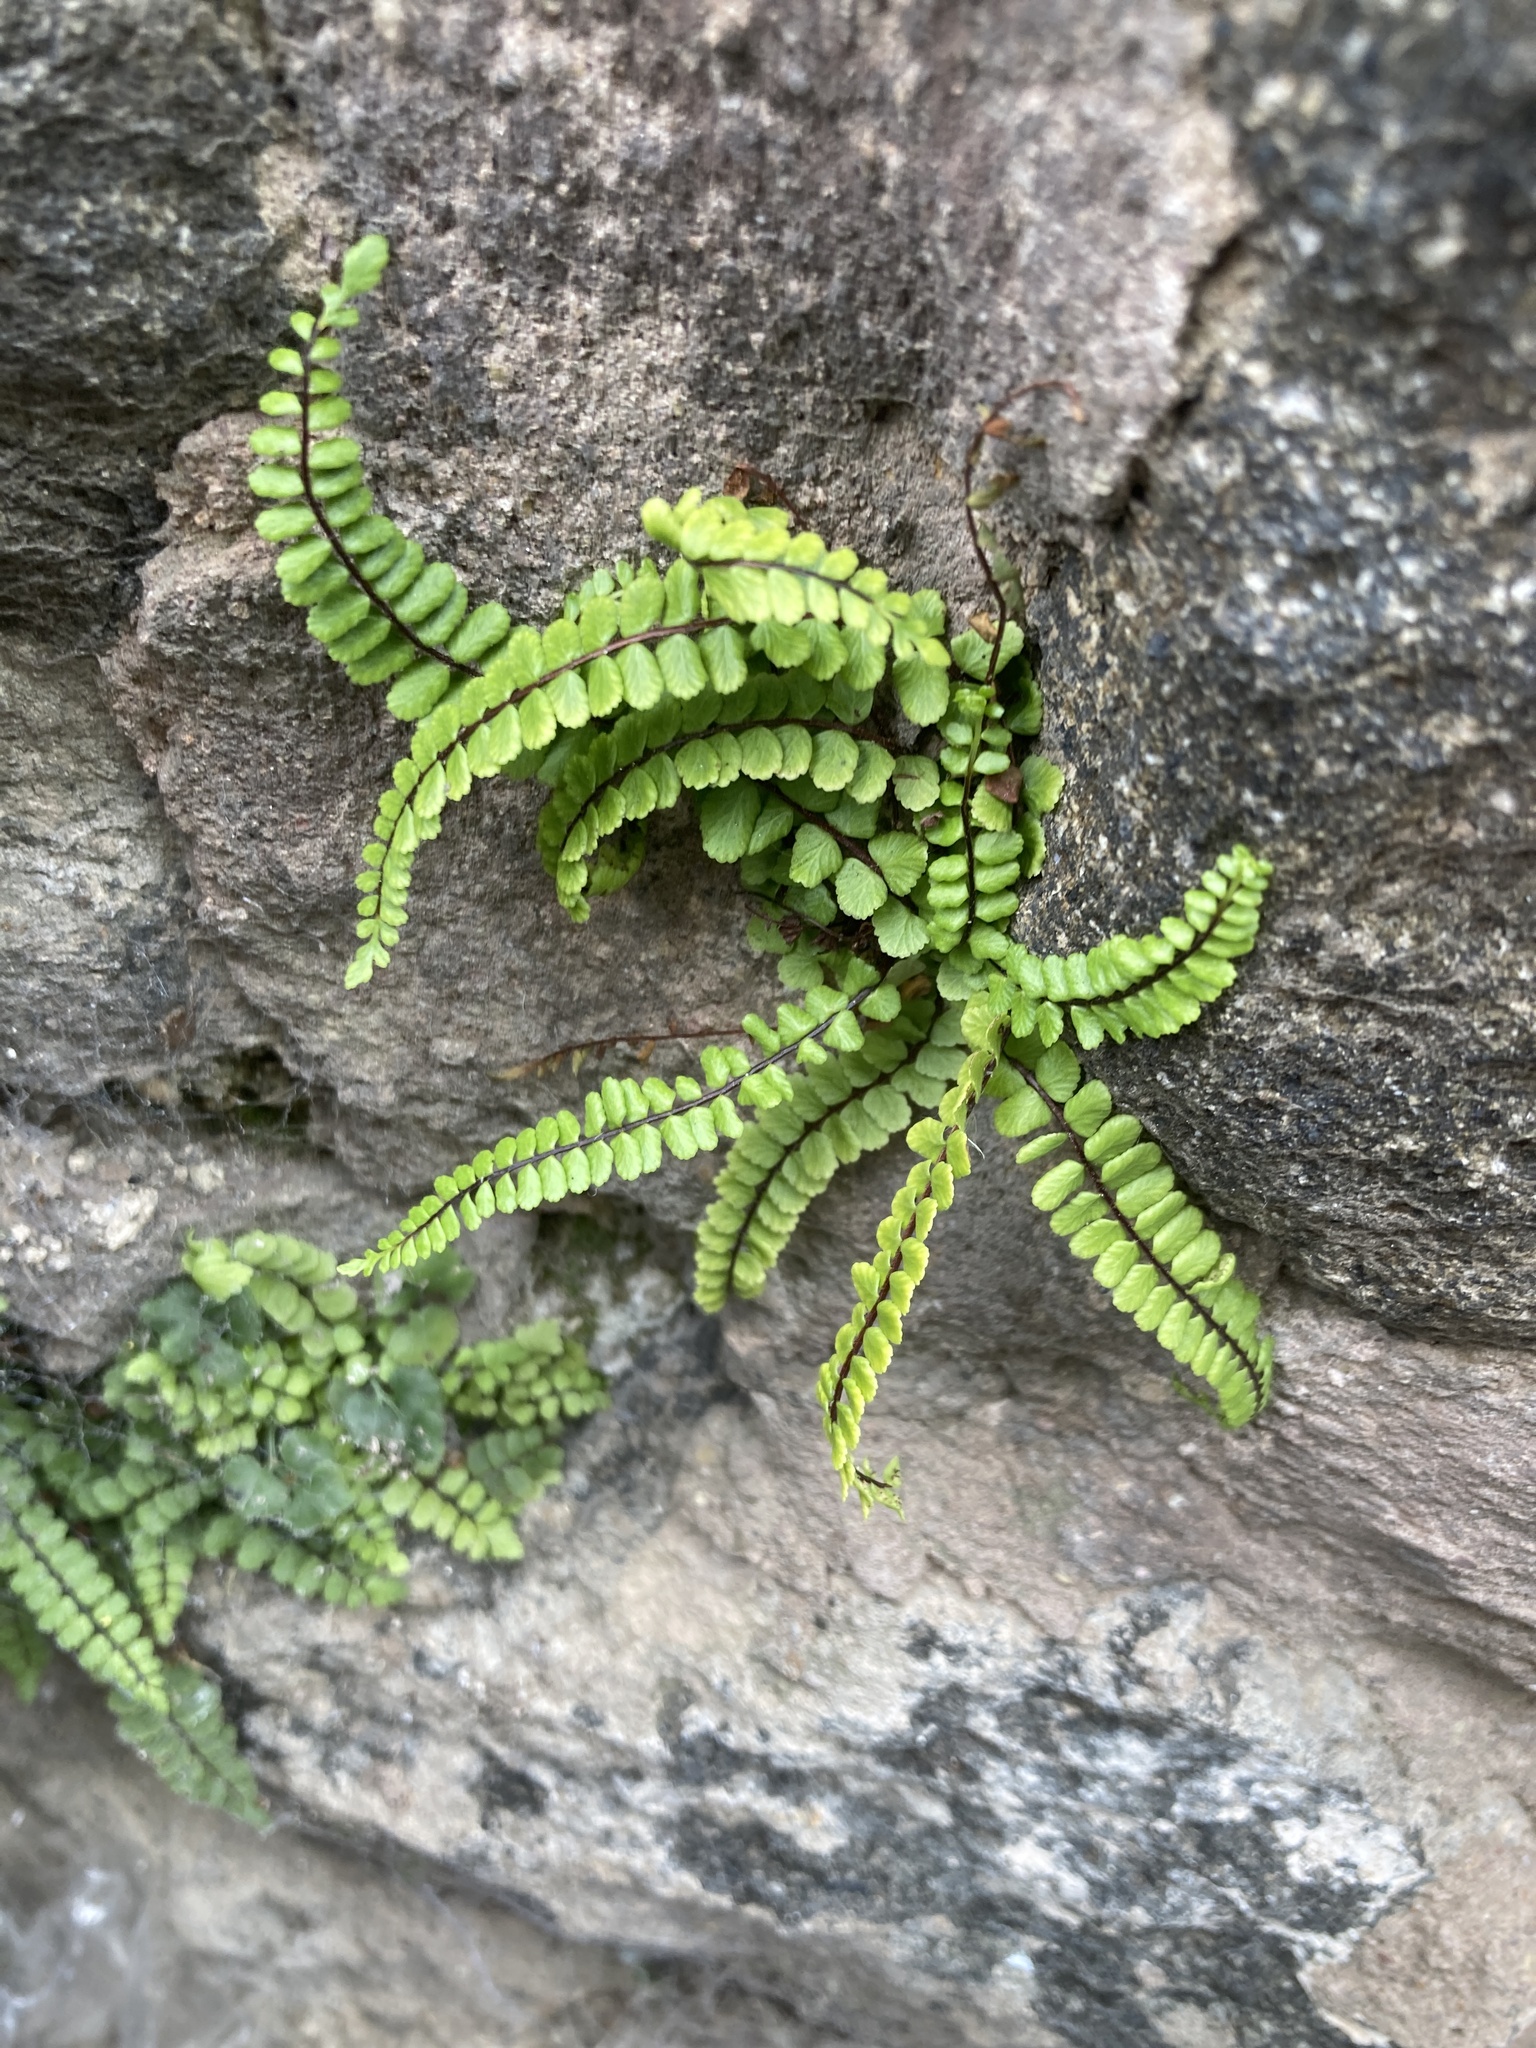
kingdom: Plantae
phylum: Tracheophyta
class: Polypodiopsida
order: Polypodiales
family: Aspleniaceae
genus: Asplenium
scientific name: Asplenium trichomanes
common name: Maidenhair spleenwort
